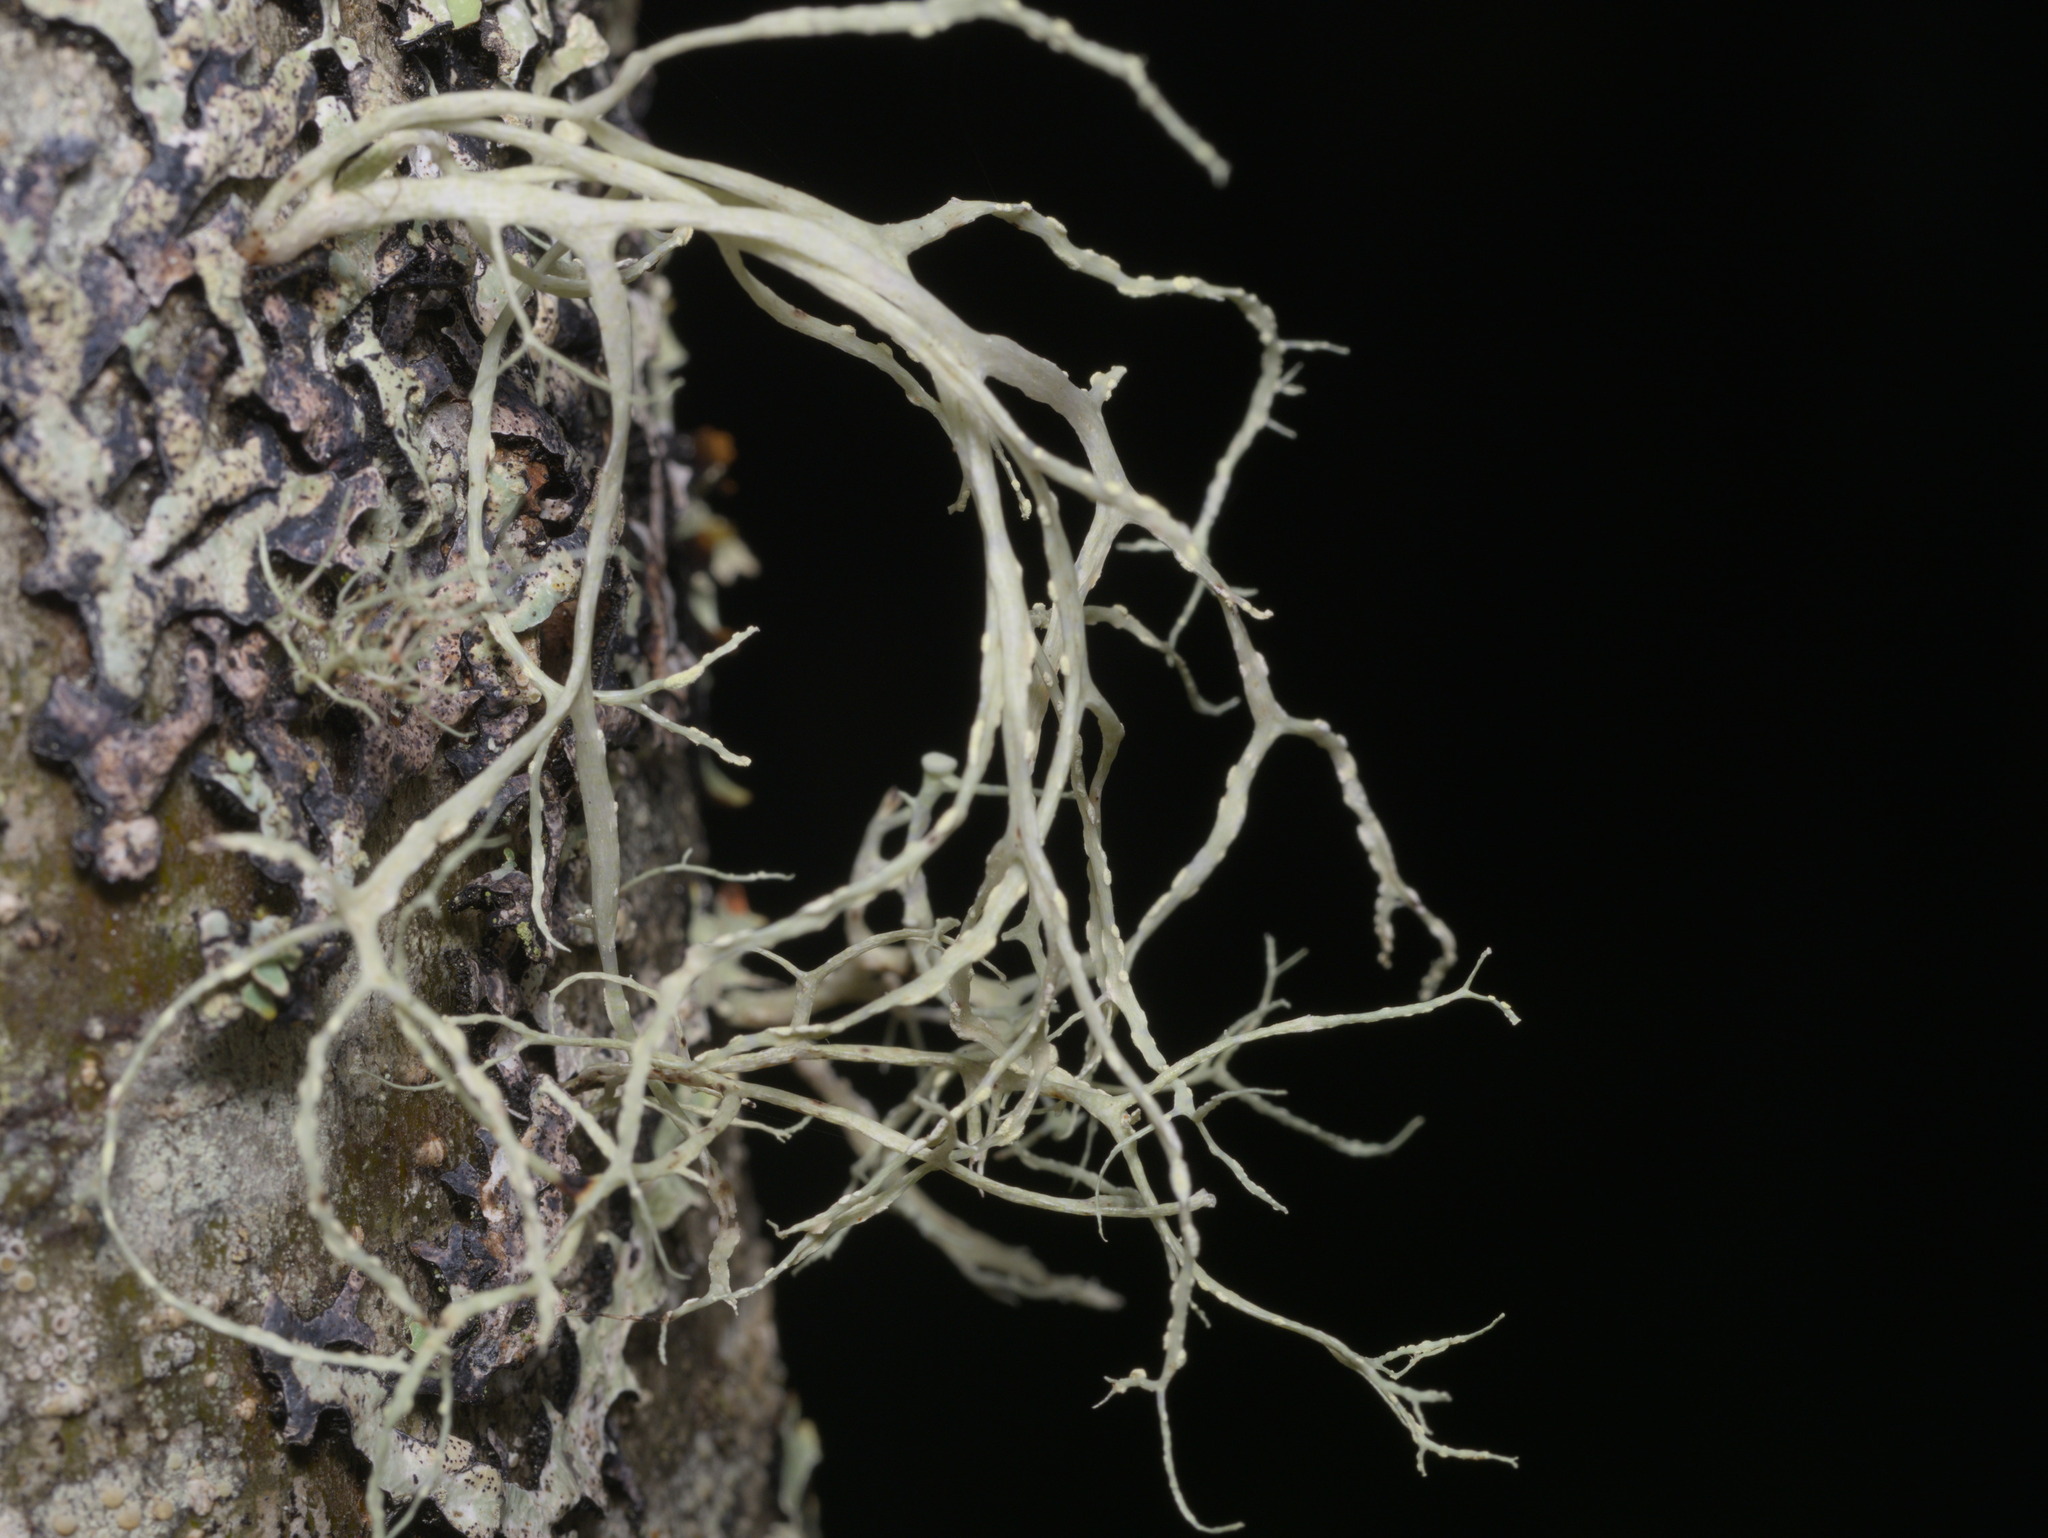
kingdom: Fungi
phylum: Ascomycota
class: Lecanoromycetes
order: Lecanorales
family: Ramalinaceae
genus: Ramalina
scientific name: Ramalina farinacea
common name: Farinose cartilage lichen
